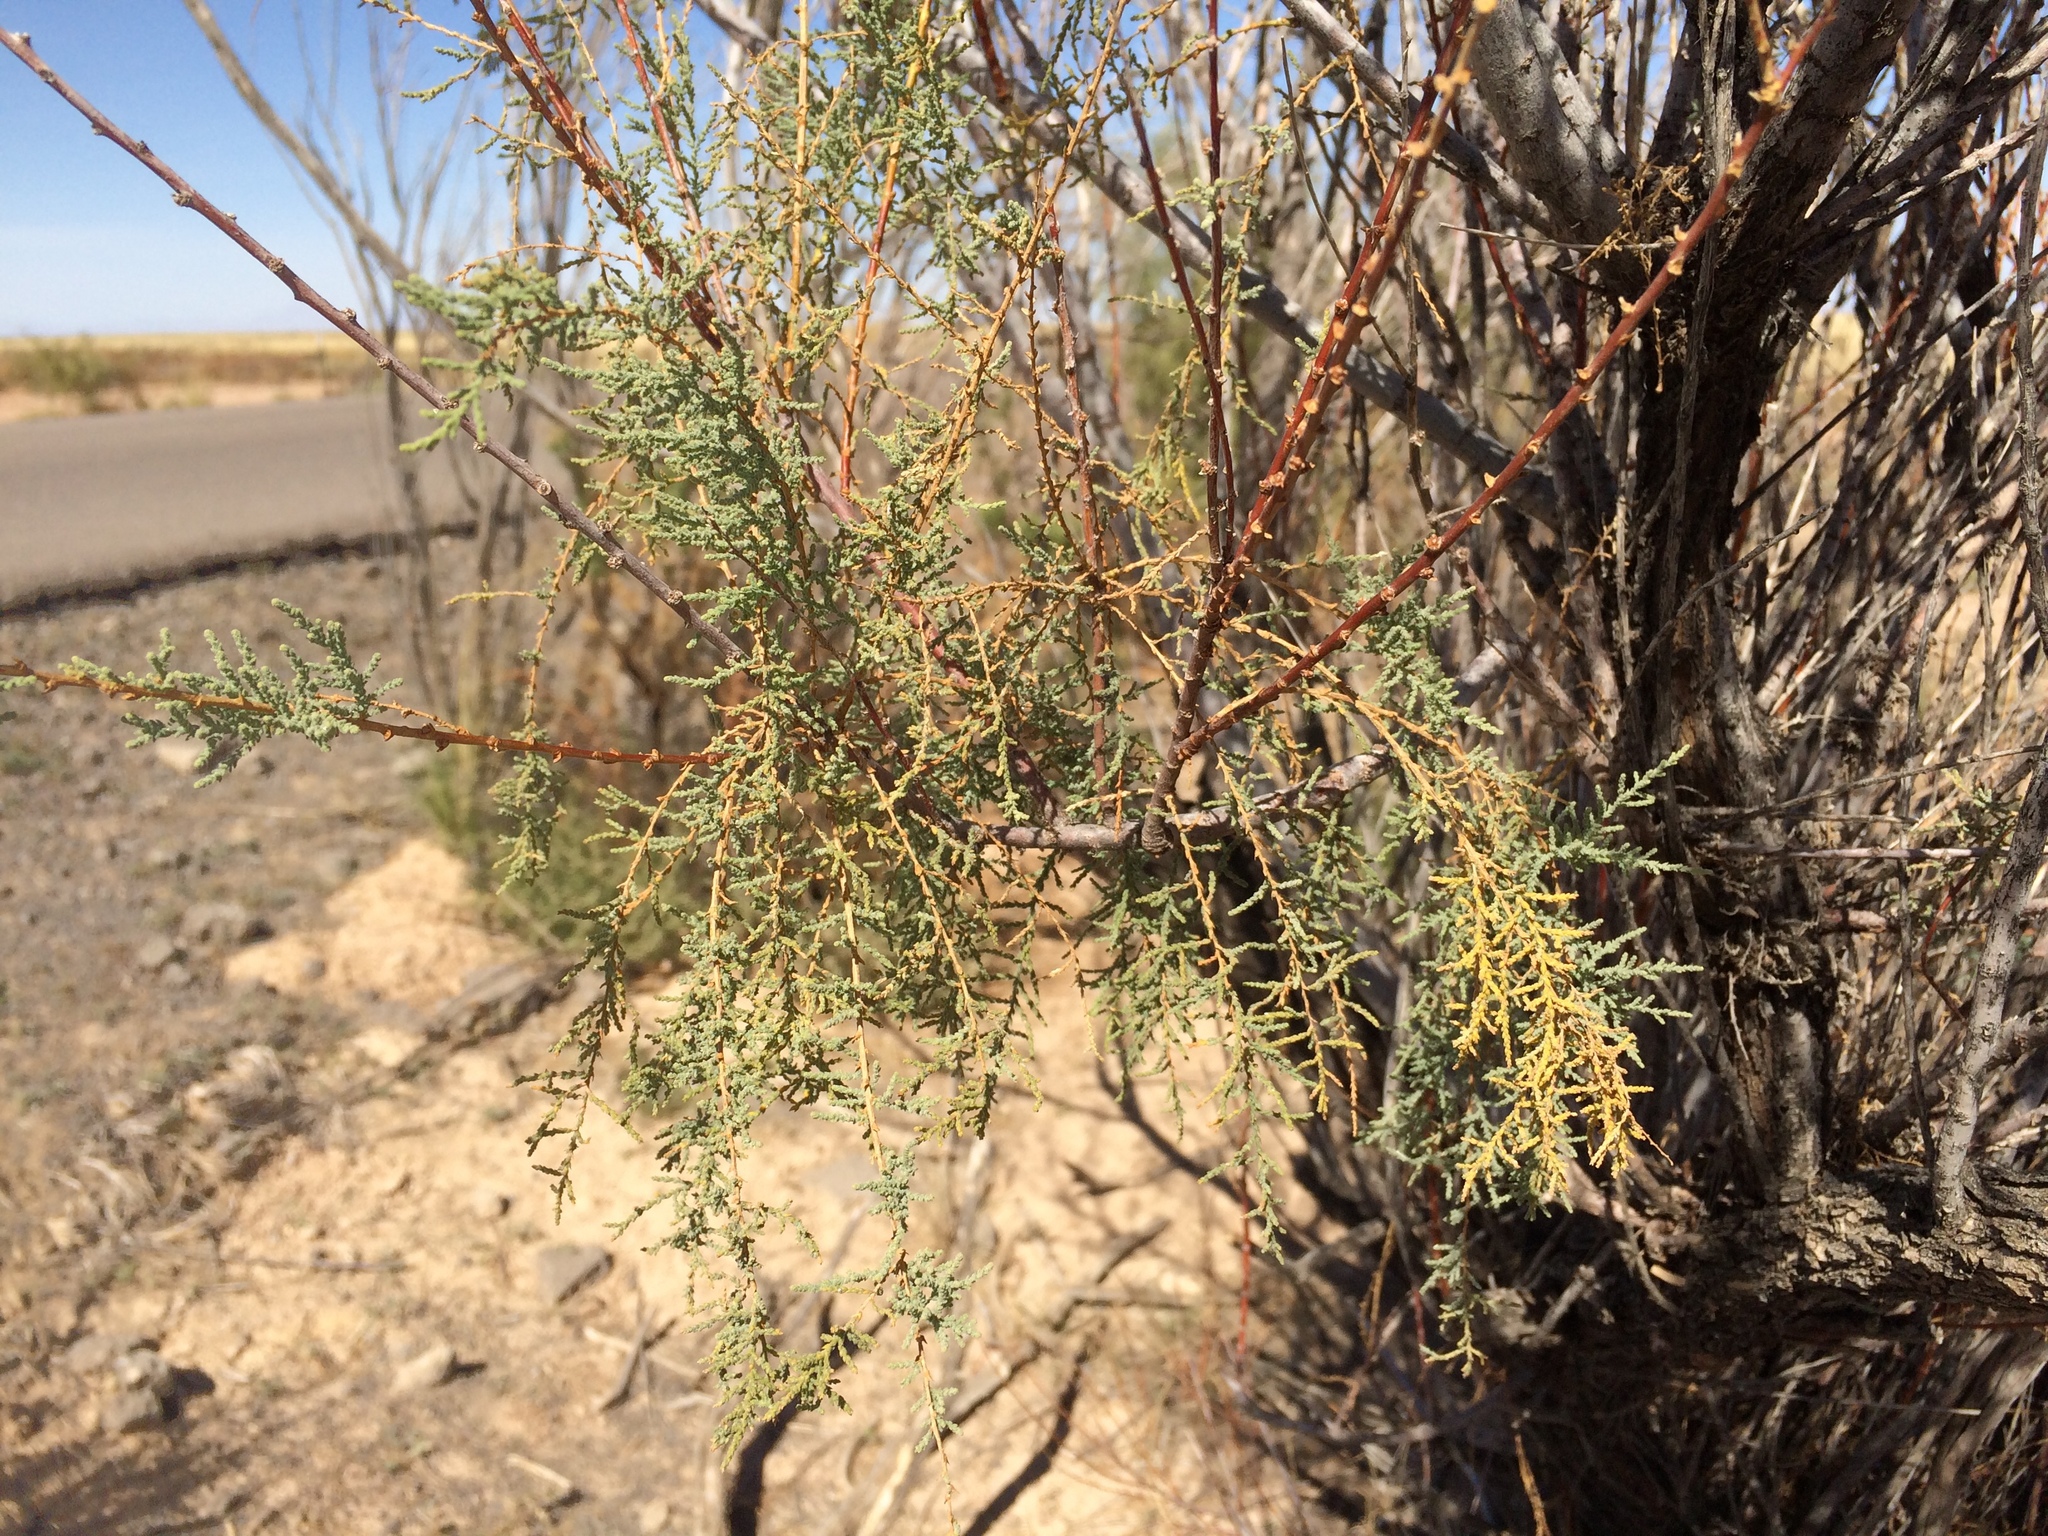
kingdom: Plantae
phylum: Tracheophyta
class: Magnoliopsida
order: Caryophyllales
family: Tamaricaceae
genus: Tamarix
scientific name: Tamarix ramosissima
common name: Pink tamarisk
